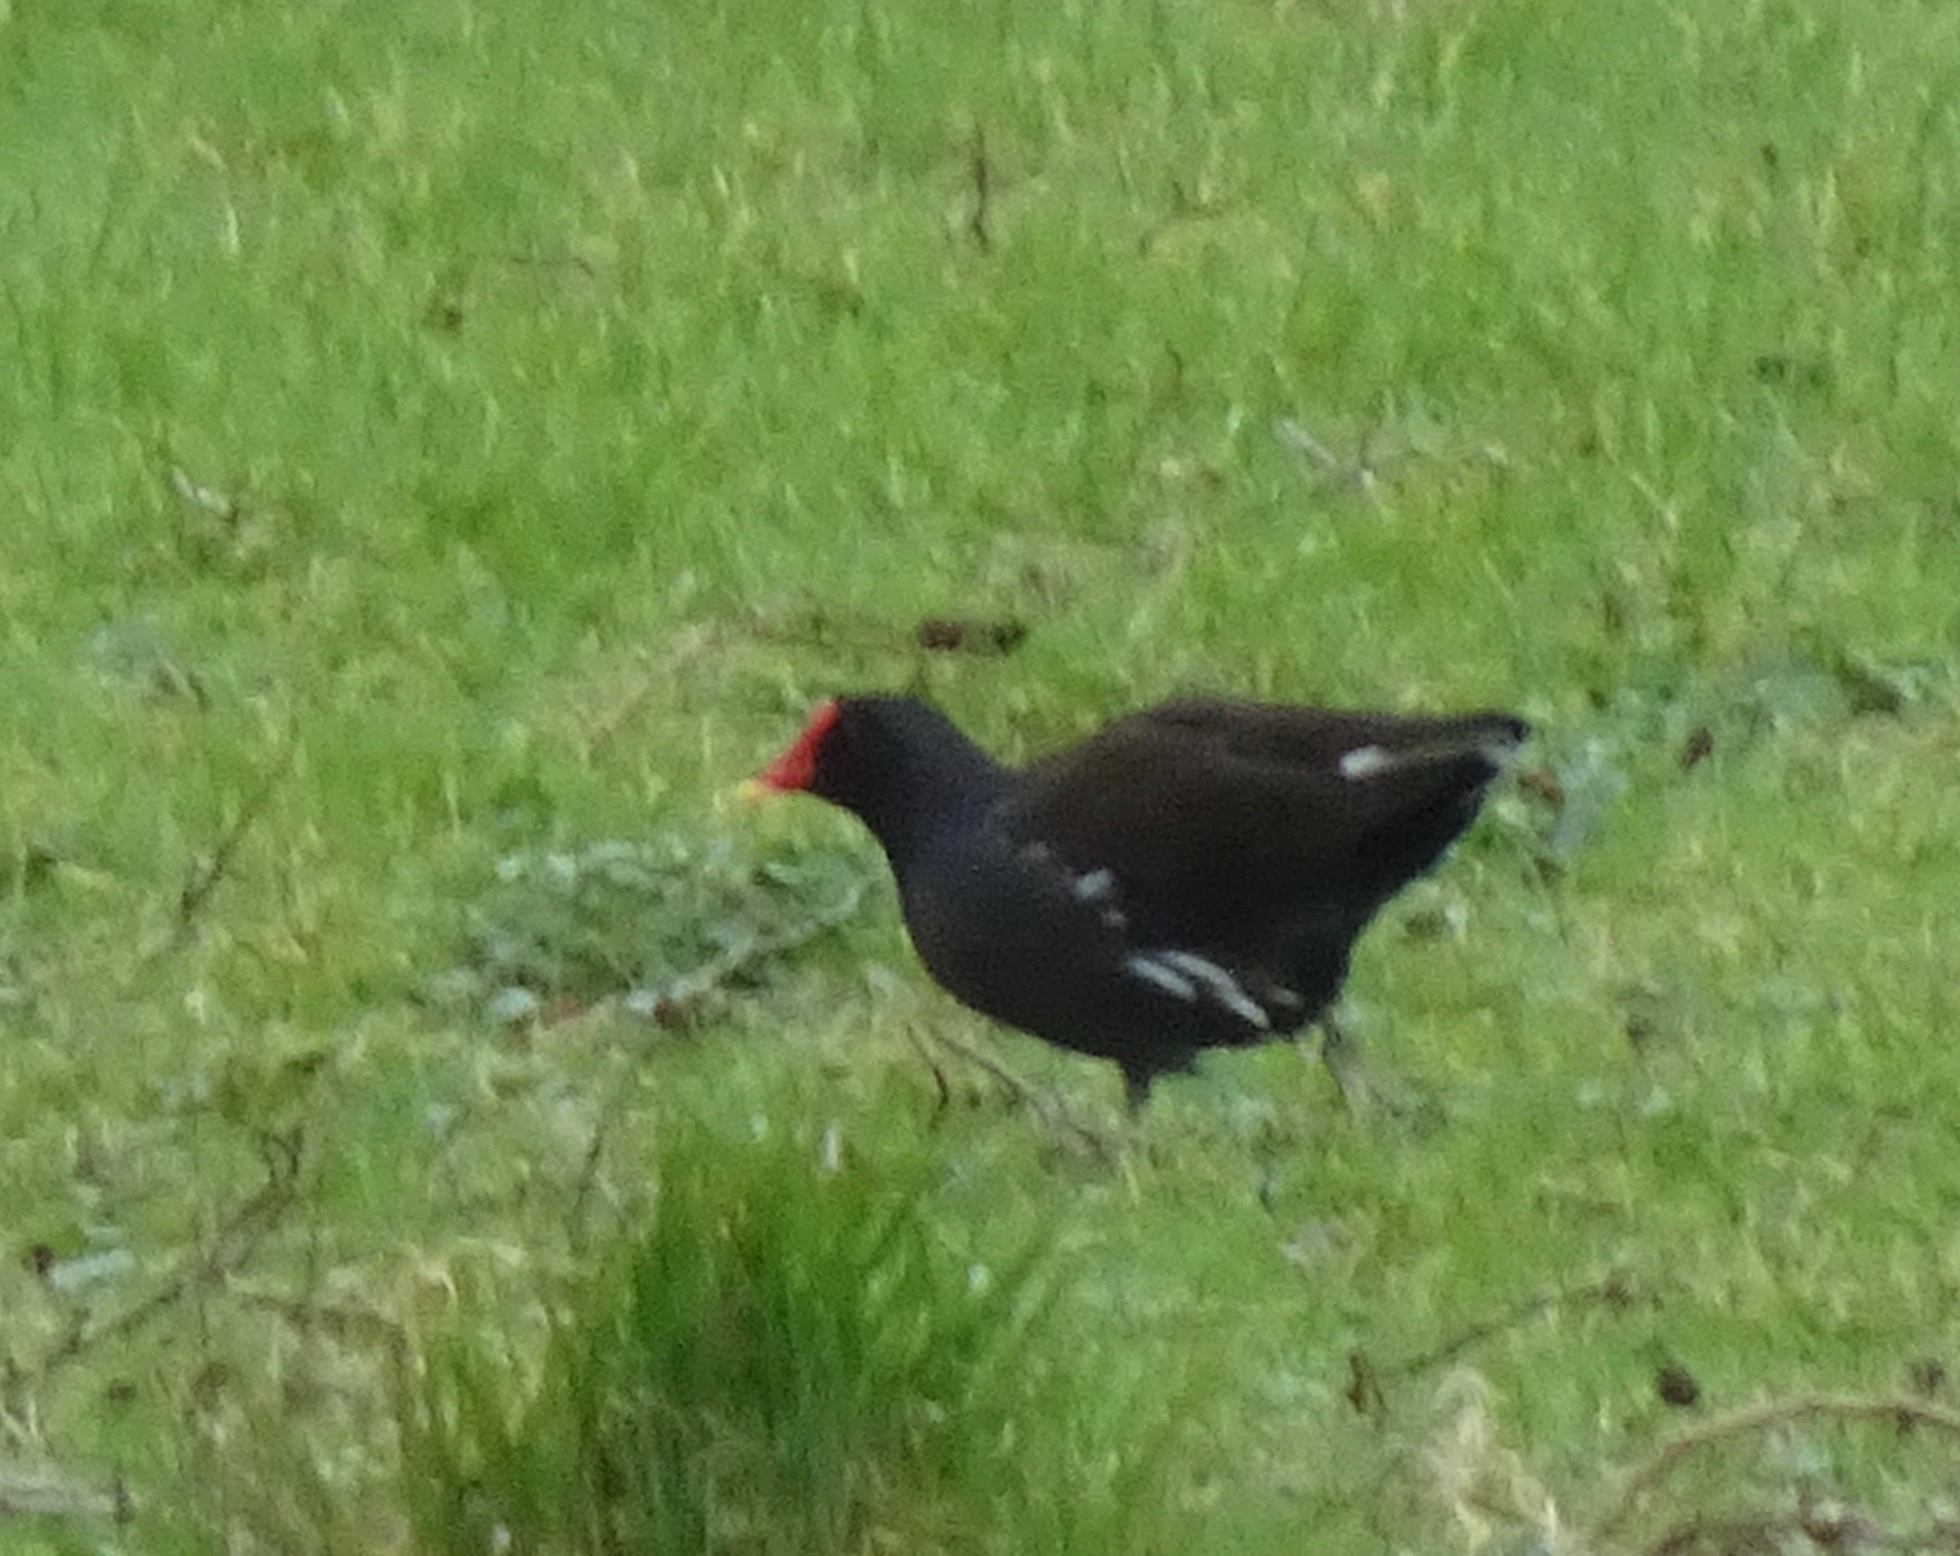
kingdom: Animalia
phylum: Chordata
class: Aves
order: Gruiformes
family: Rallidae
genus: Gallinula
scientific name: Gallinula chloropus
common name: Common moorhen
